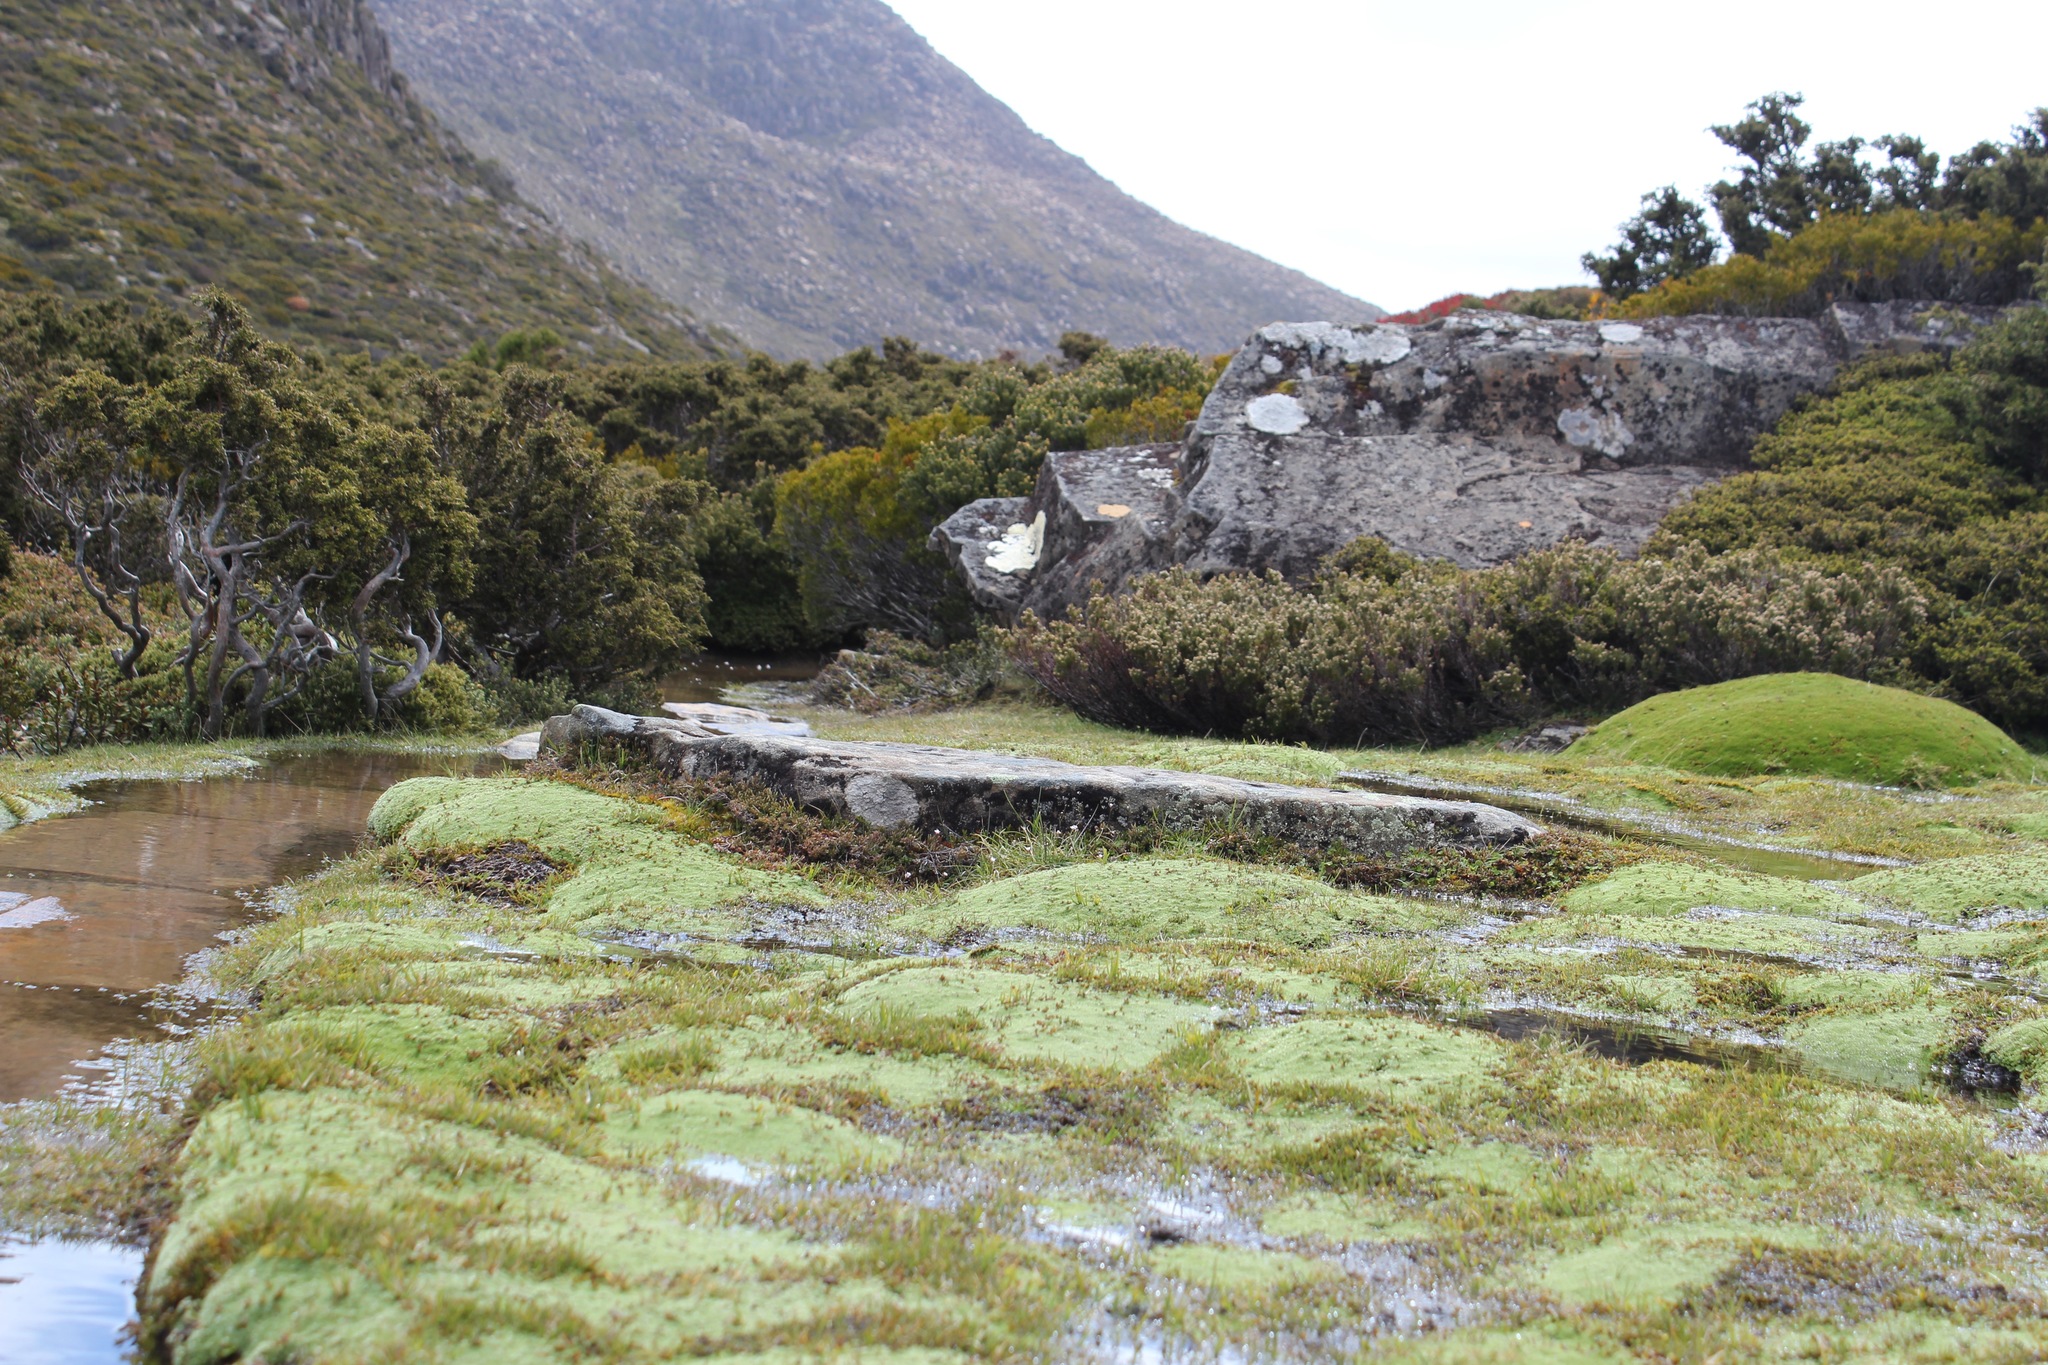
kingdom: Plantae
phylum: Tracheophyta
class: Magnoliopsida
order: Asterales
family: Asteraceae
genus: Pterygopappus
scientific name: Pterygopappus lawrencii
